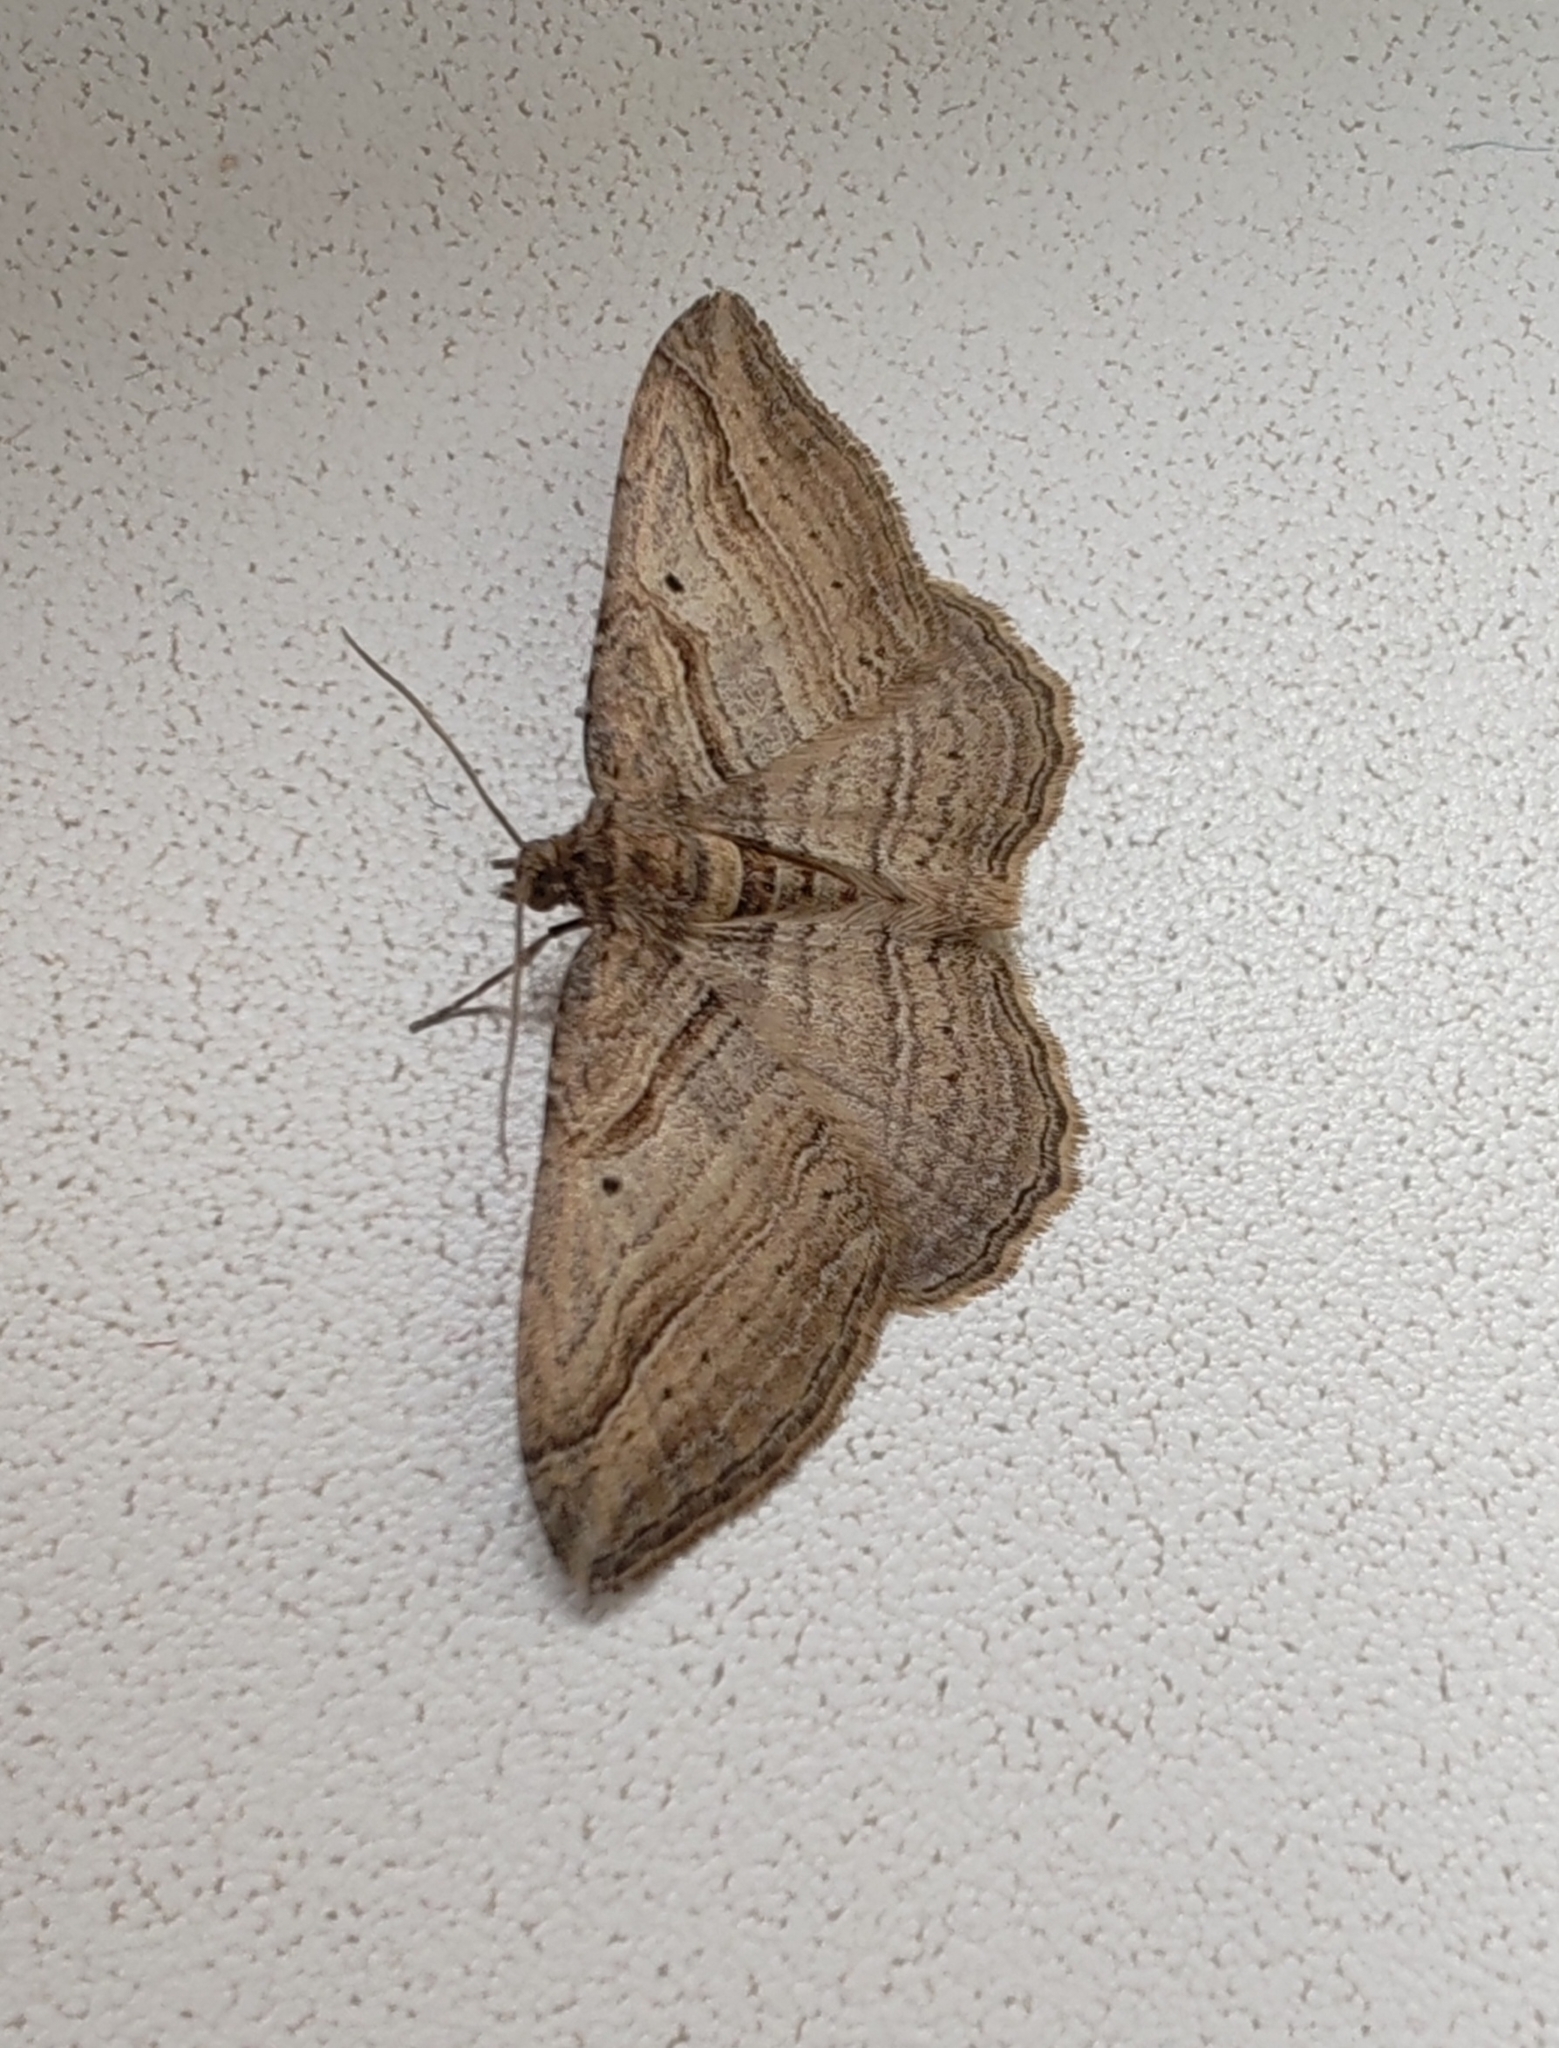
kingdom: Animalia
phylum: Arthropoda
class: Insecta
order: Lepidoptera
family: Geometridae
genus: Costaconvexa
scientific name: Costaconvexa polygrammata
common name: Many-lined
